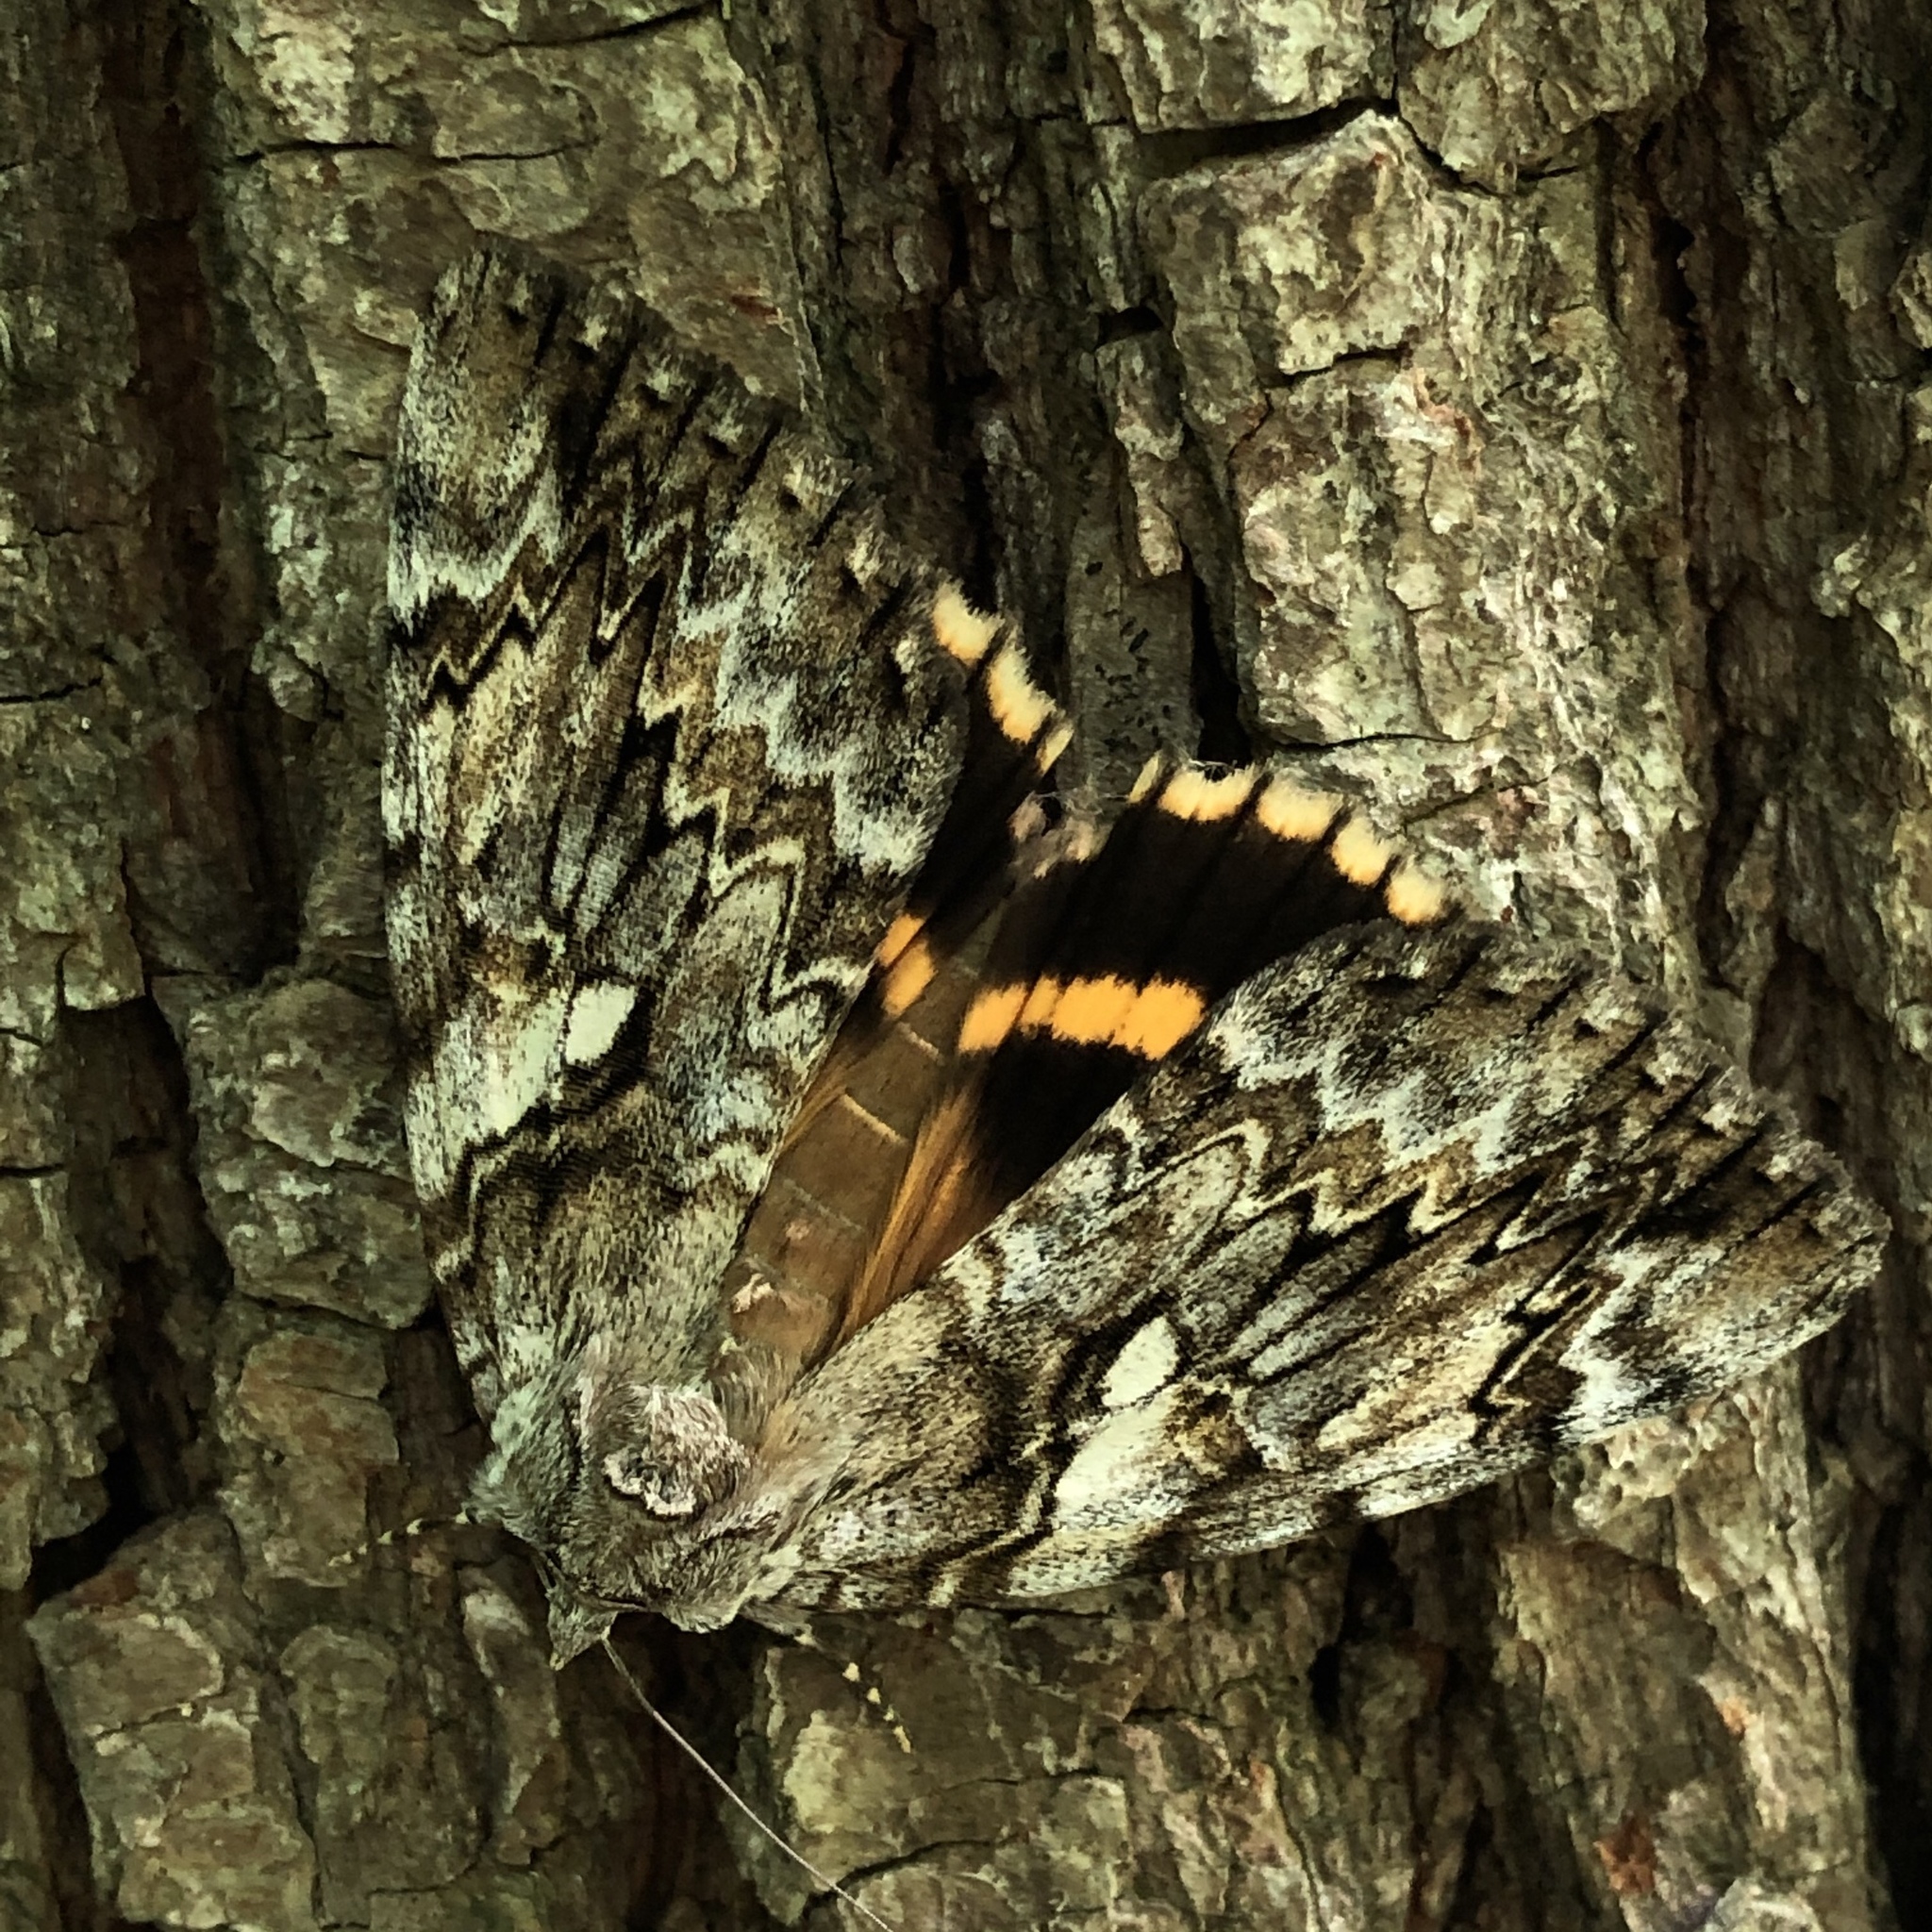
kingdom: Animalia
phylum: Arthropoda
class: Insecta
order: Lepidoptera
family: Erebidae
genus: Catocala
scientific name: Catocala cerogama
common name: Yellow banded underwing
